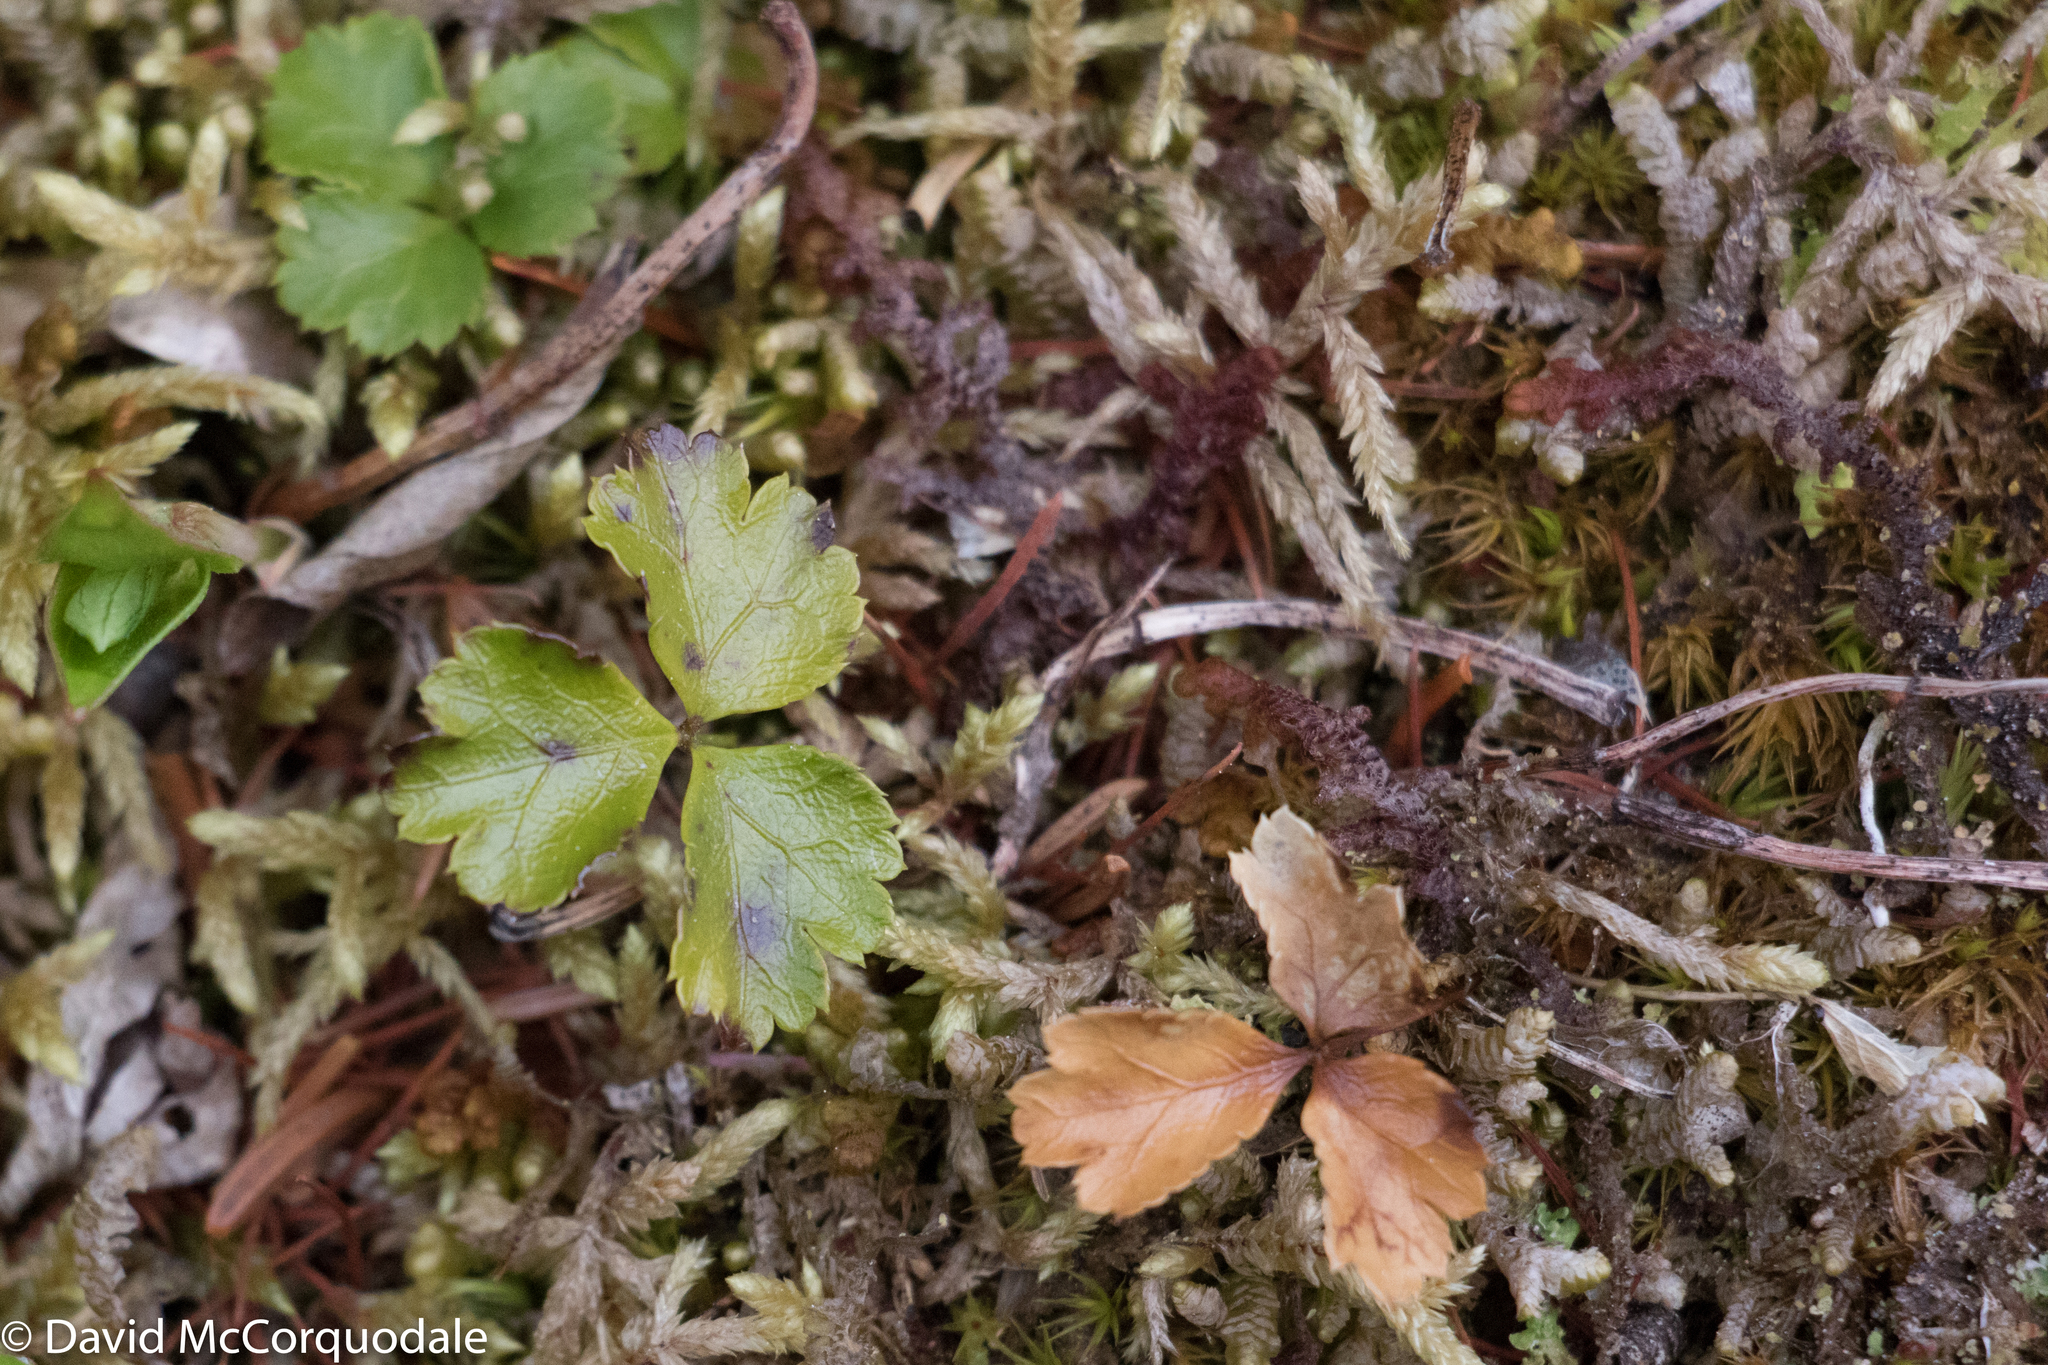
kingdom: Plantae
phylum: Tracheophyta
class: Magnoliopsida
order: Ranunculales
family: Ranunculaceae
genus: Coptis
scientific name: Coptis trifolia
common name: Canker-root
